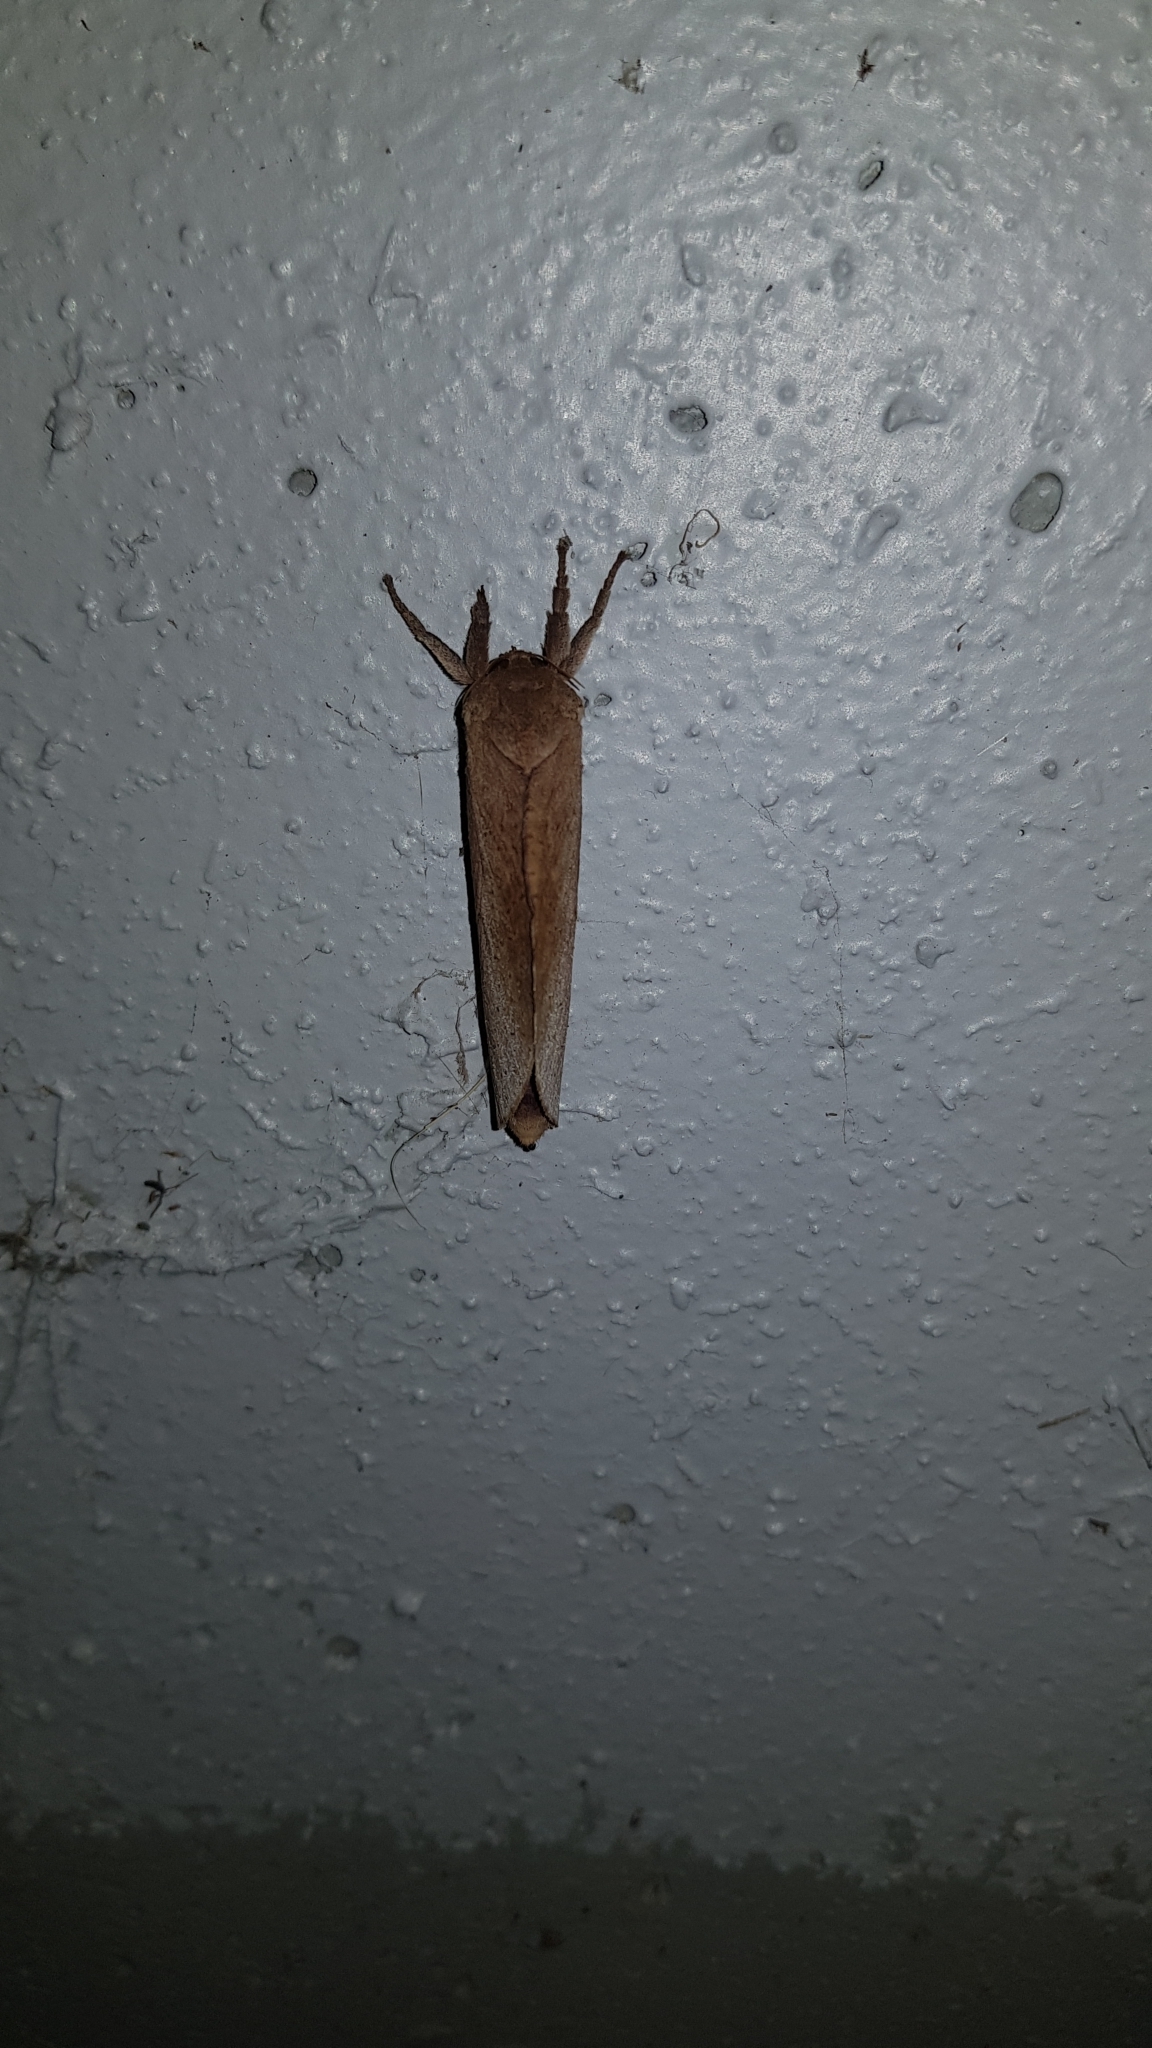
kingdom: Animalia
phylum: Arthropoda
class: Insecta
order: Lepidoptera
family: Hepialidae
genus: Elhamma
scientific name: Elhamma australasiae
